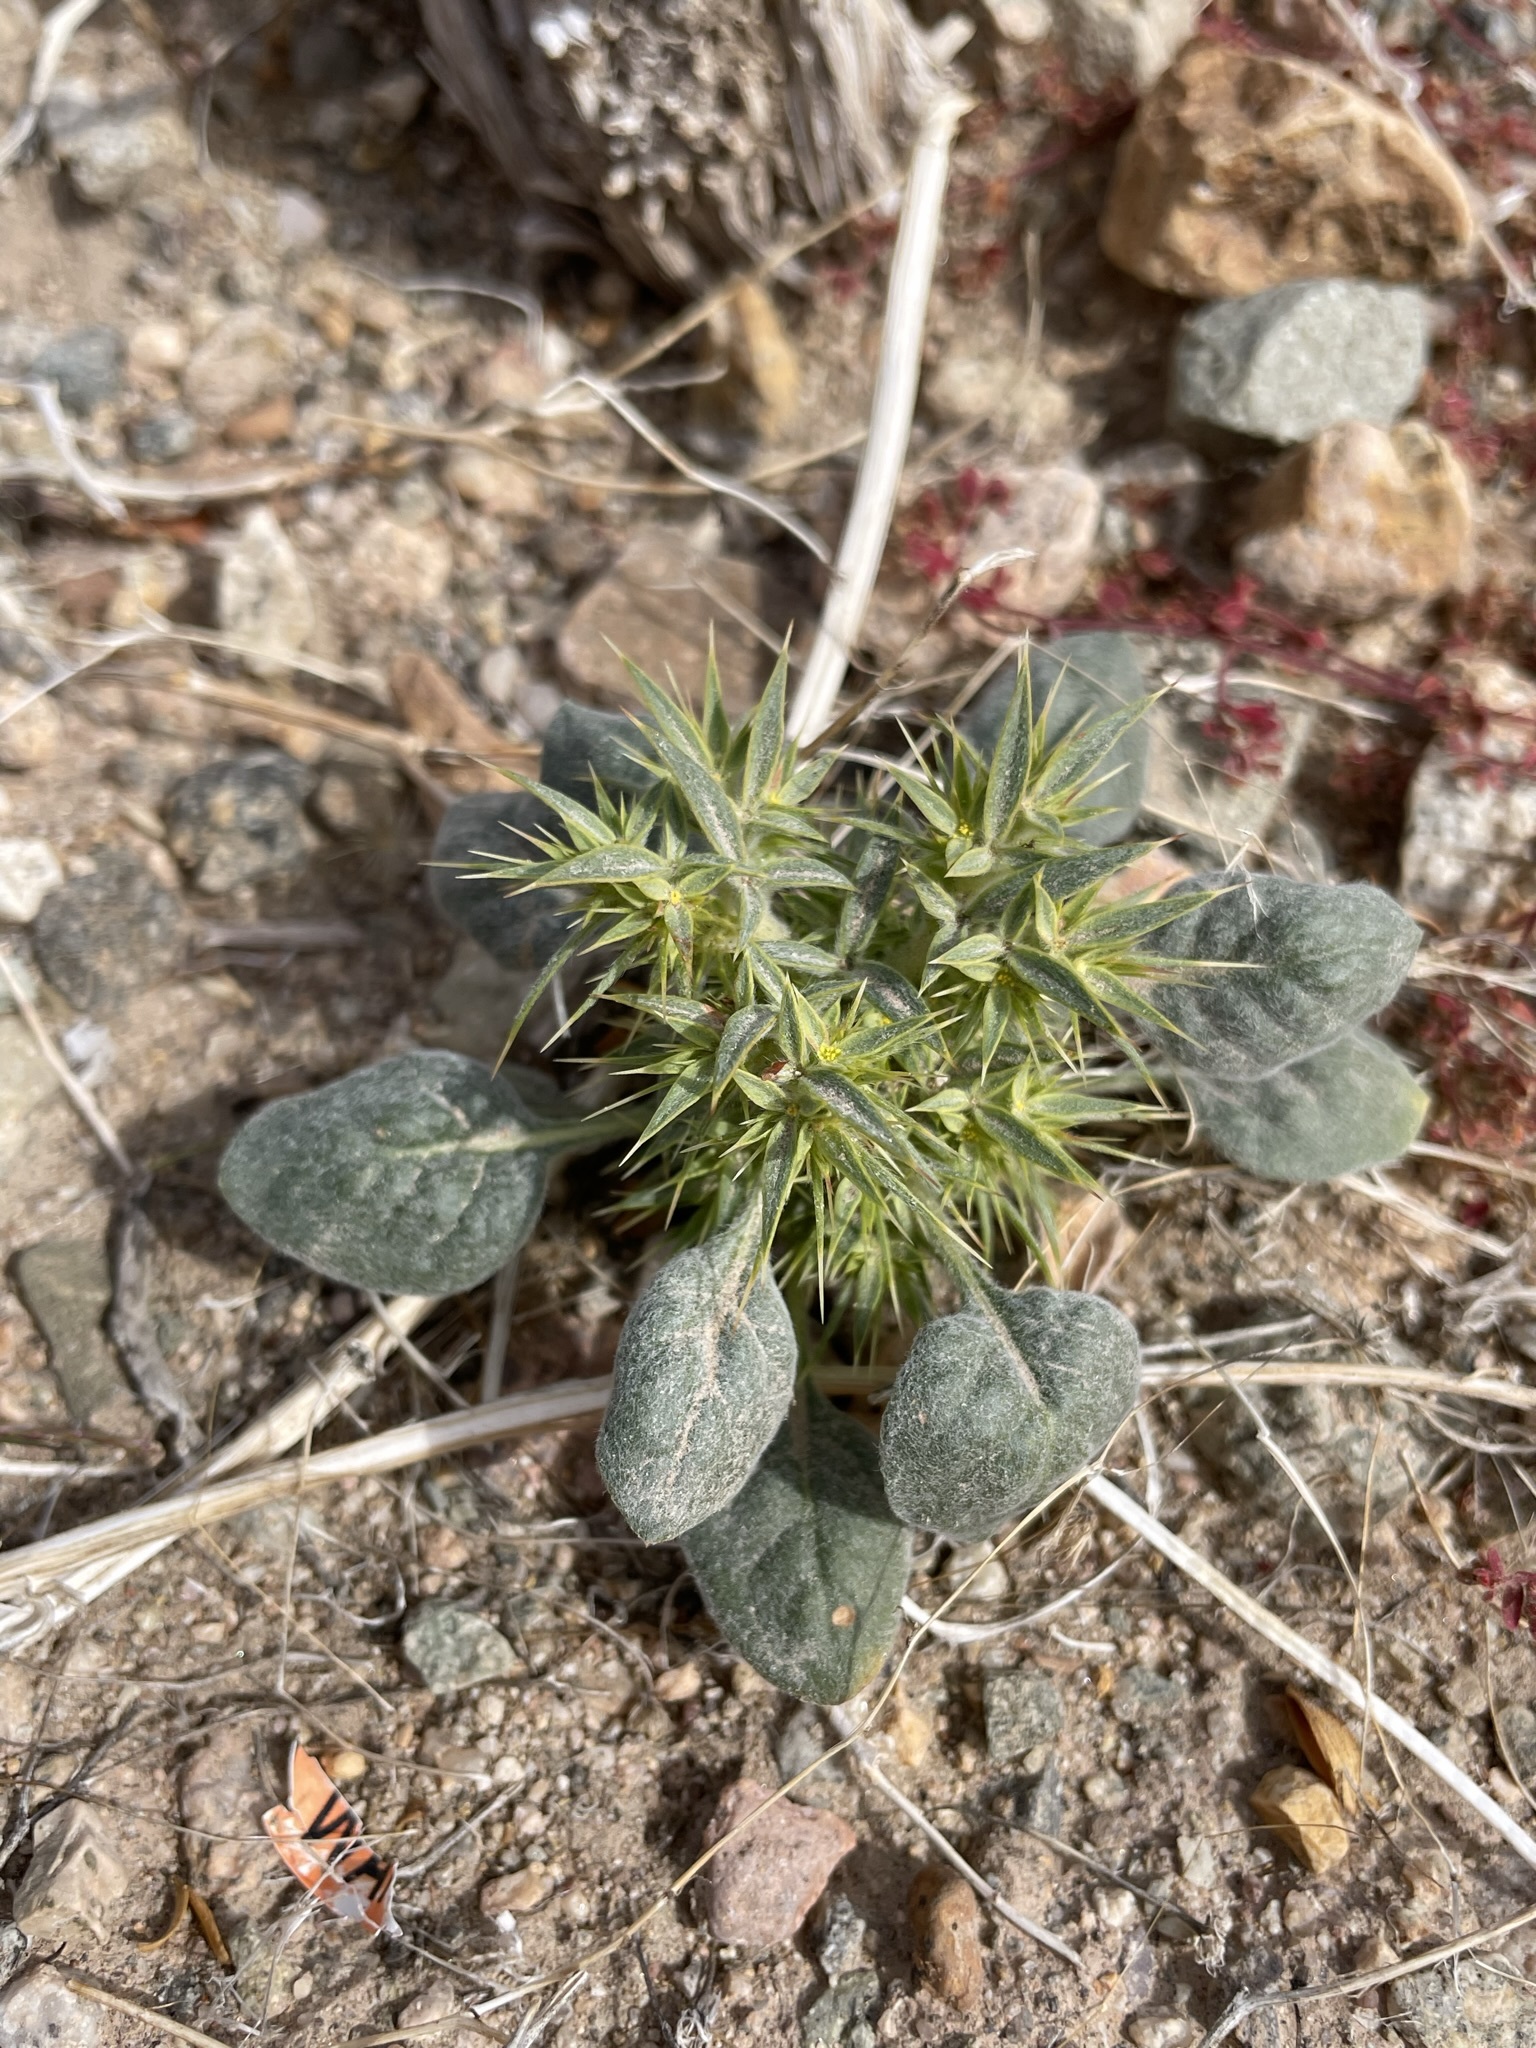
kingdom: Plantae
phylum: Tracheophyta
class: Magnoliopsida
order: Caryophyllales
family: Polygonaceae
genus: Chorizanthe
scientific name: Chorizanthe rigida
